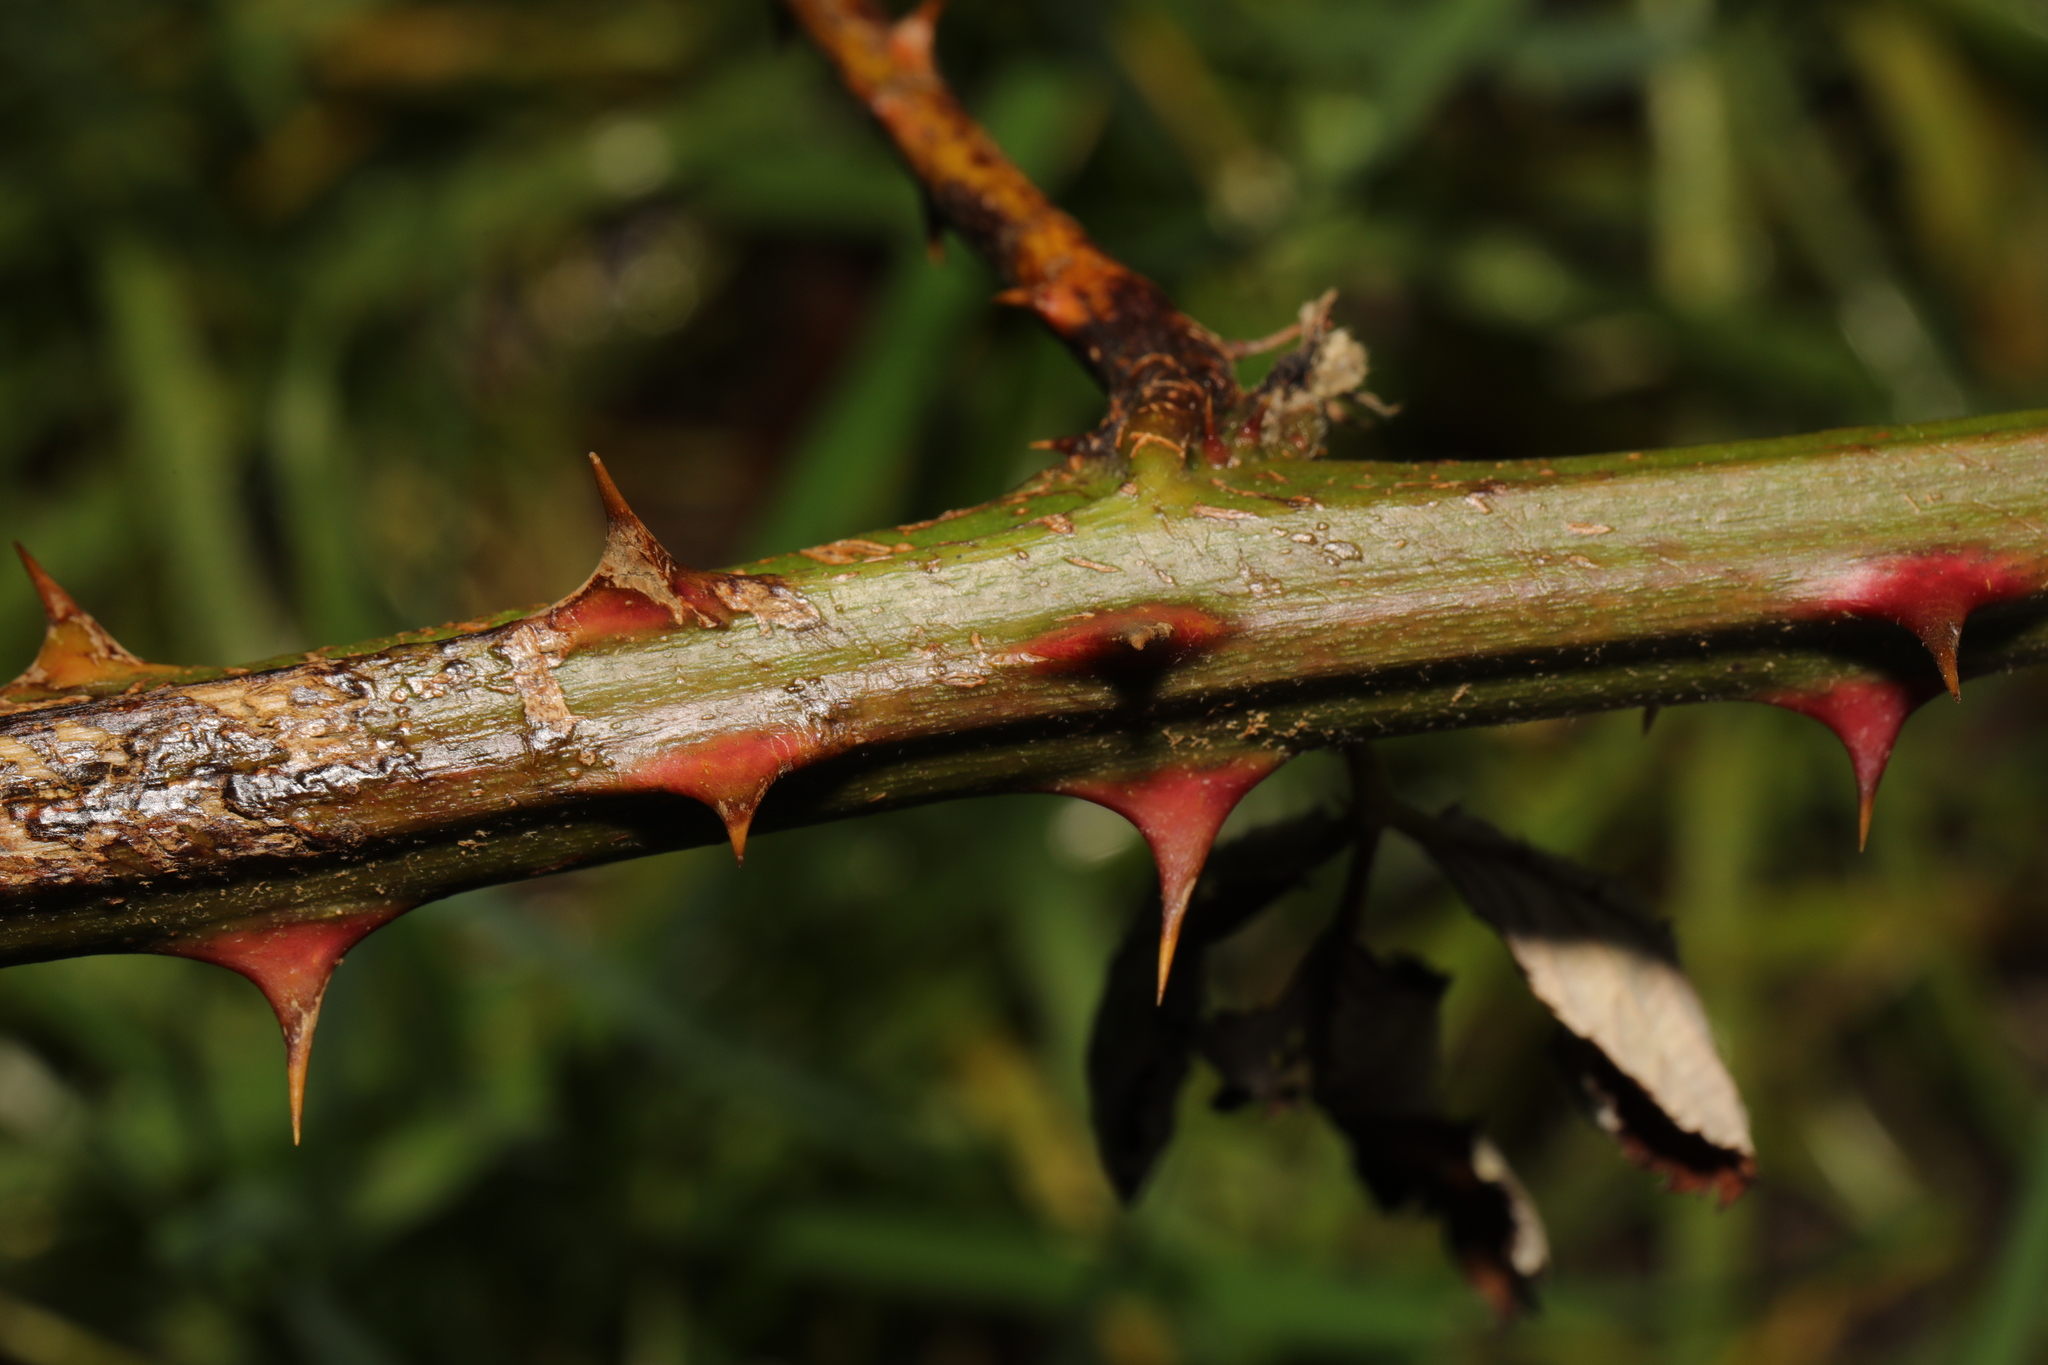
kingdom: Plantae
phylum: Tracheophyta
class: Magnoliopsida
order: Rosales
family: Rosaceae
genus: Rubus
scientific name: Rubus armeniacus
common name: Himalayan blackberry
